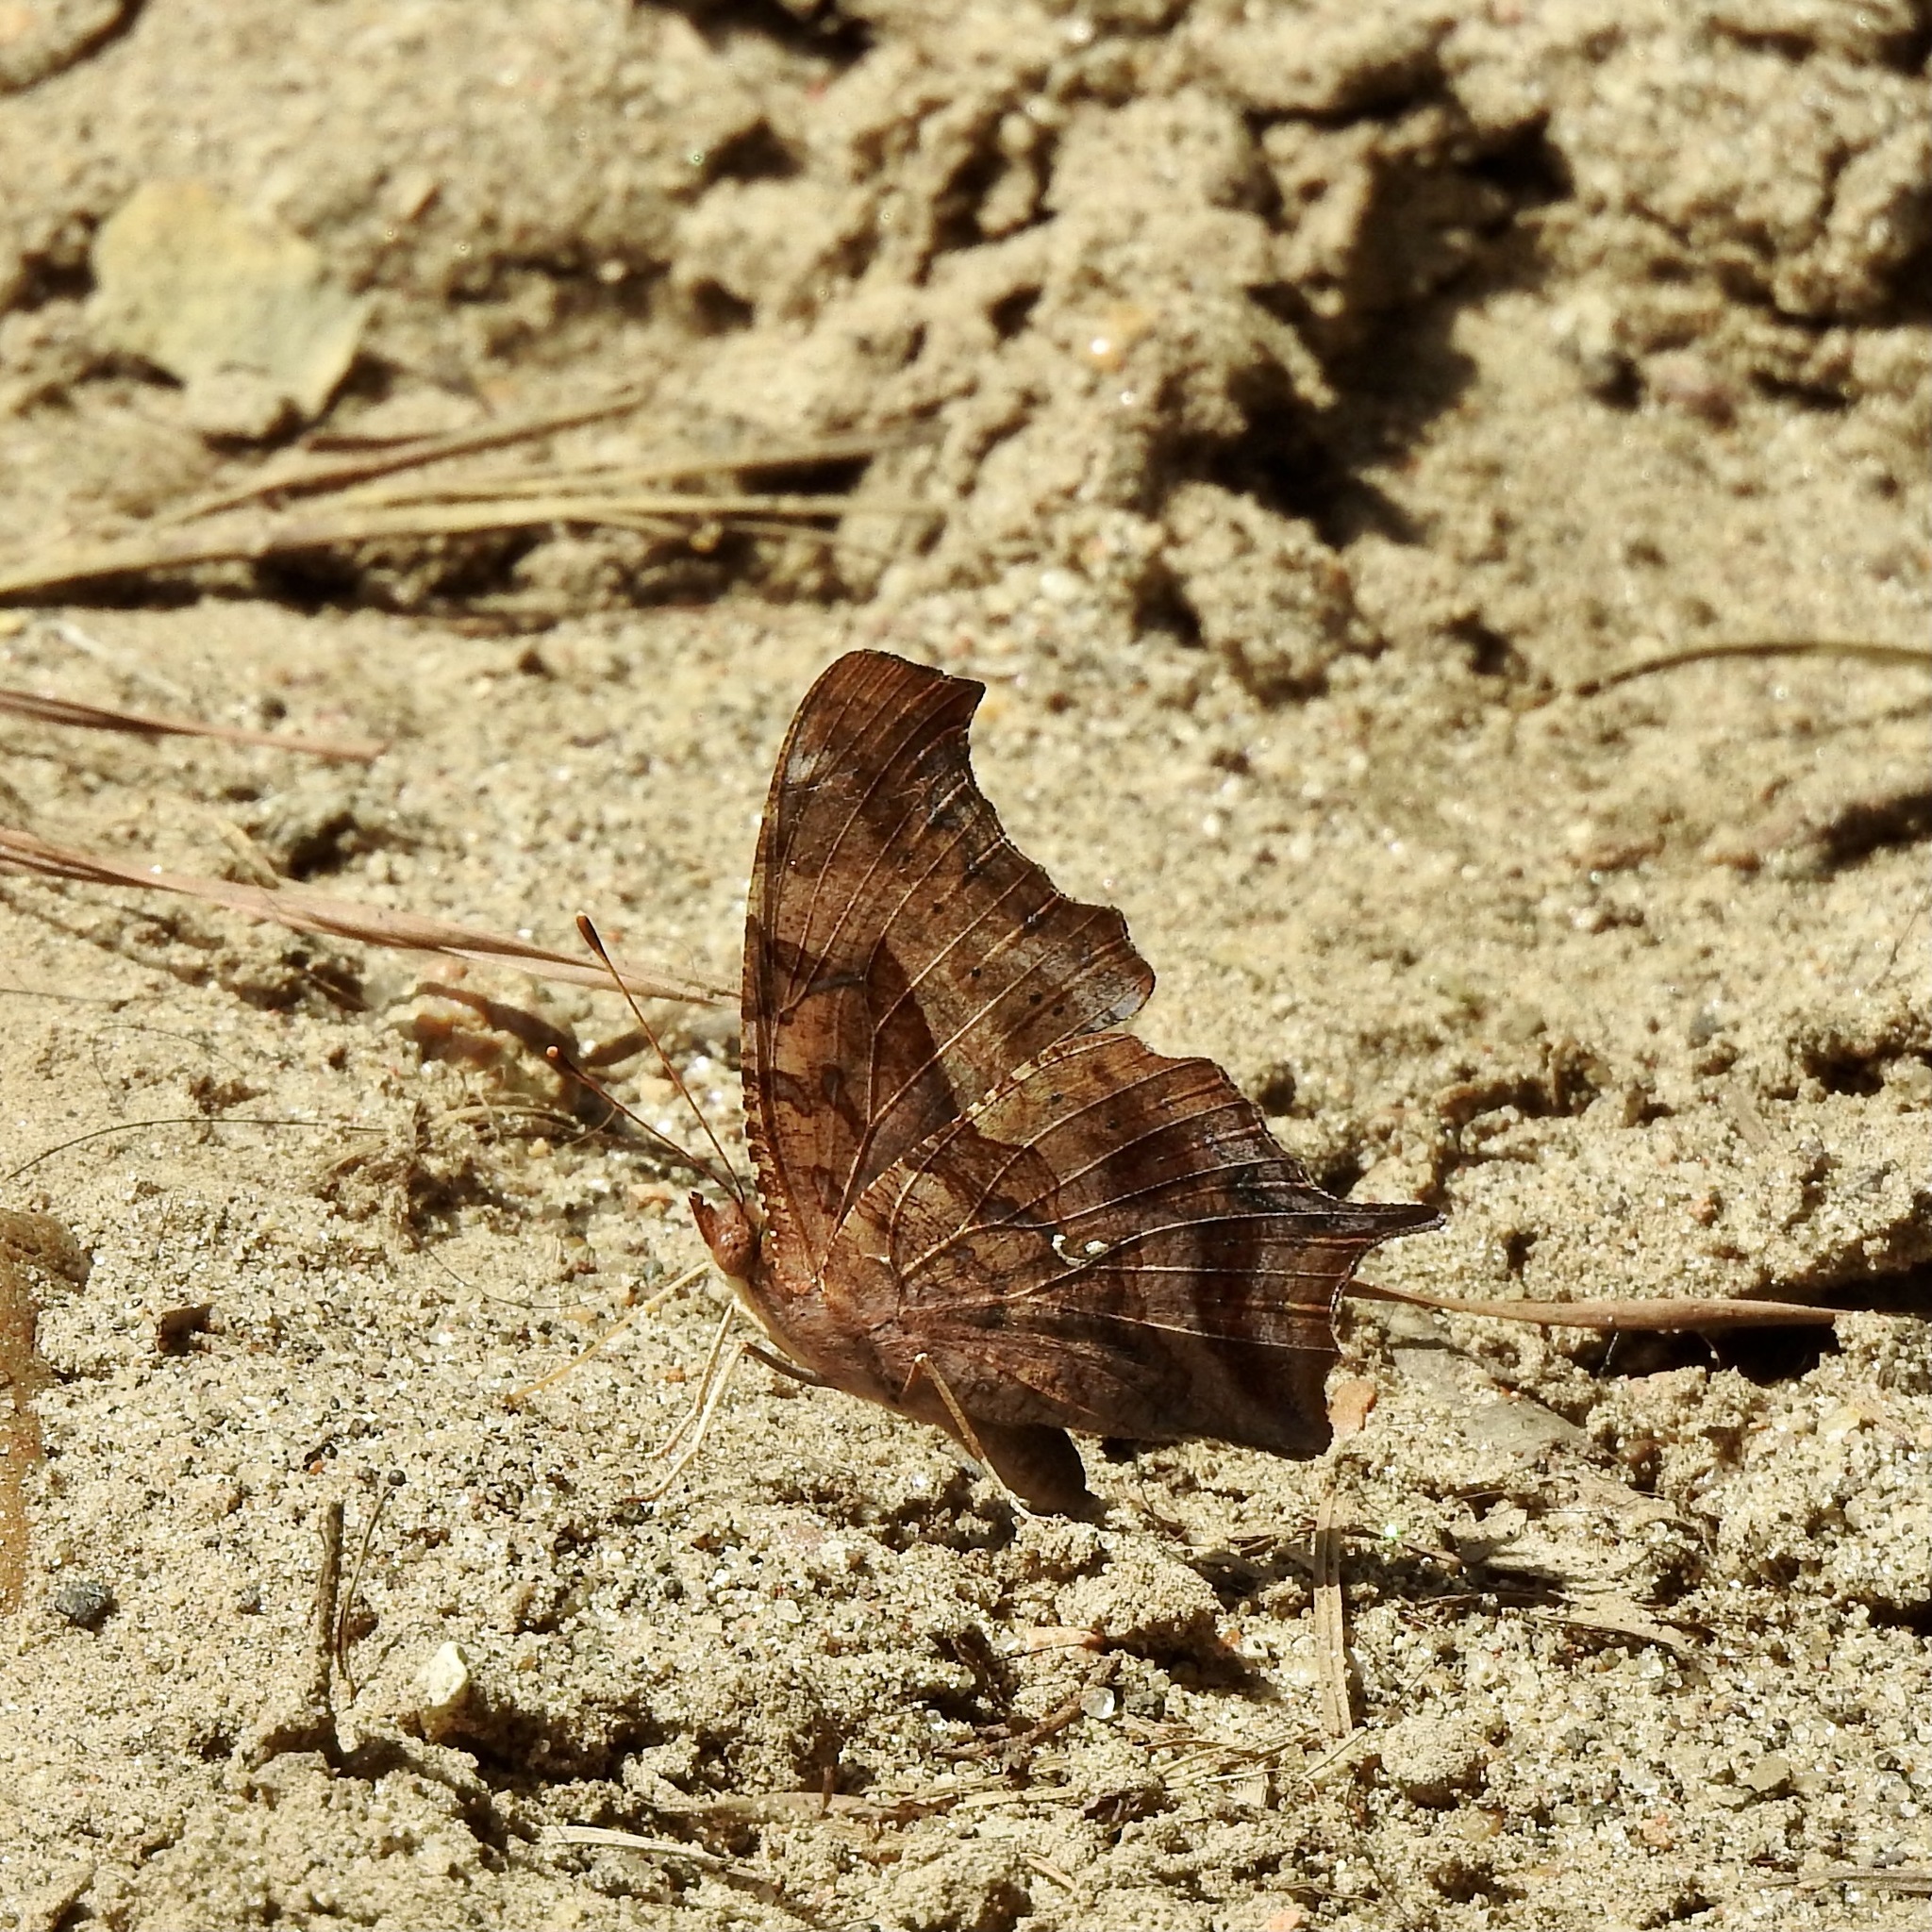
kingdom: Animalia
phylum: Arthropoda
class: Insecta
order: Lepidoptera
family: Nymphalidae
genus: Polygonia
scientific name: Polygonia interrogationis
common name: Question mark
